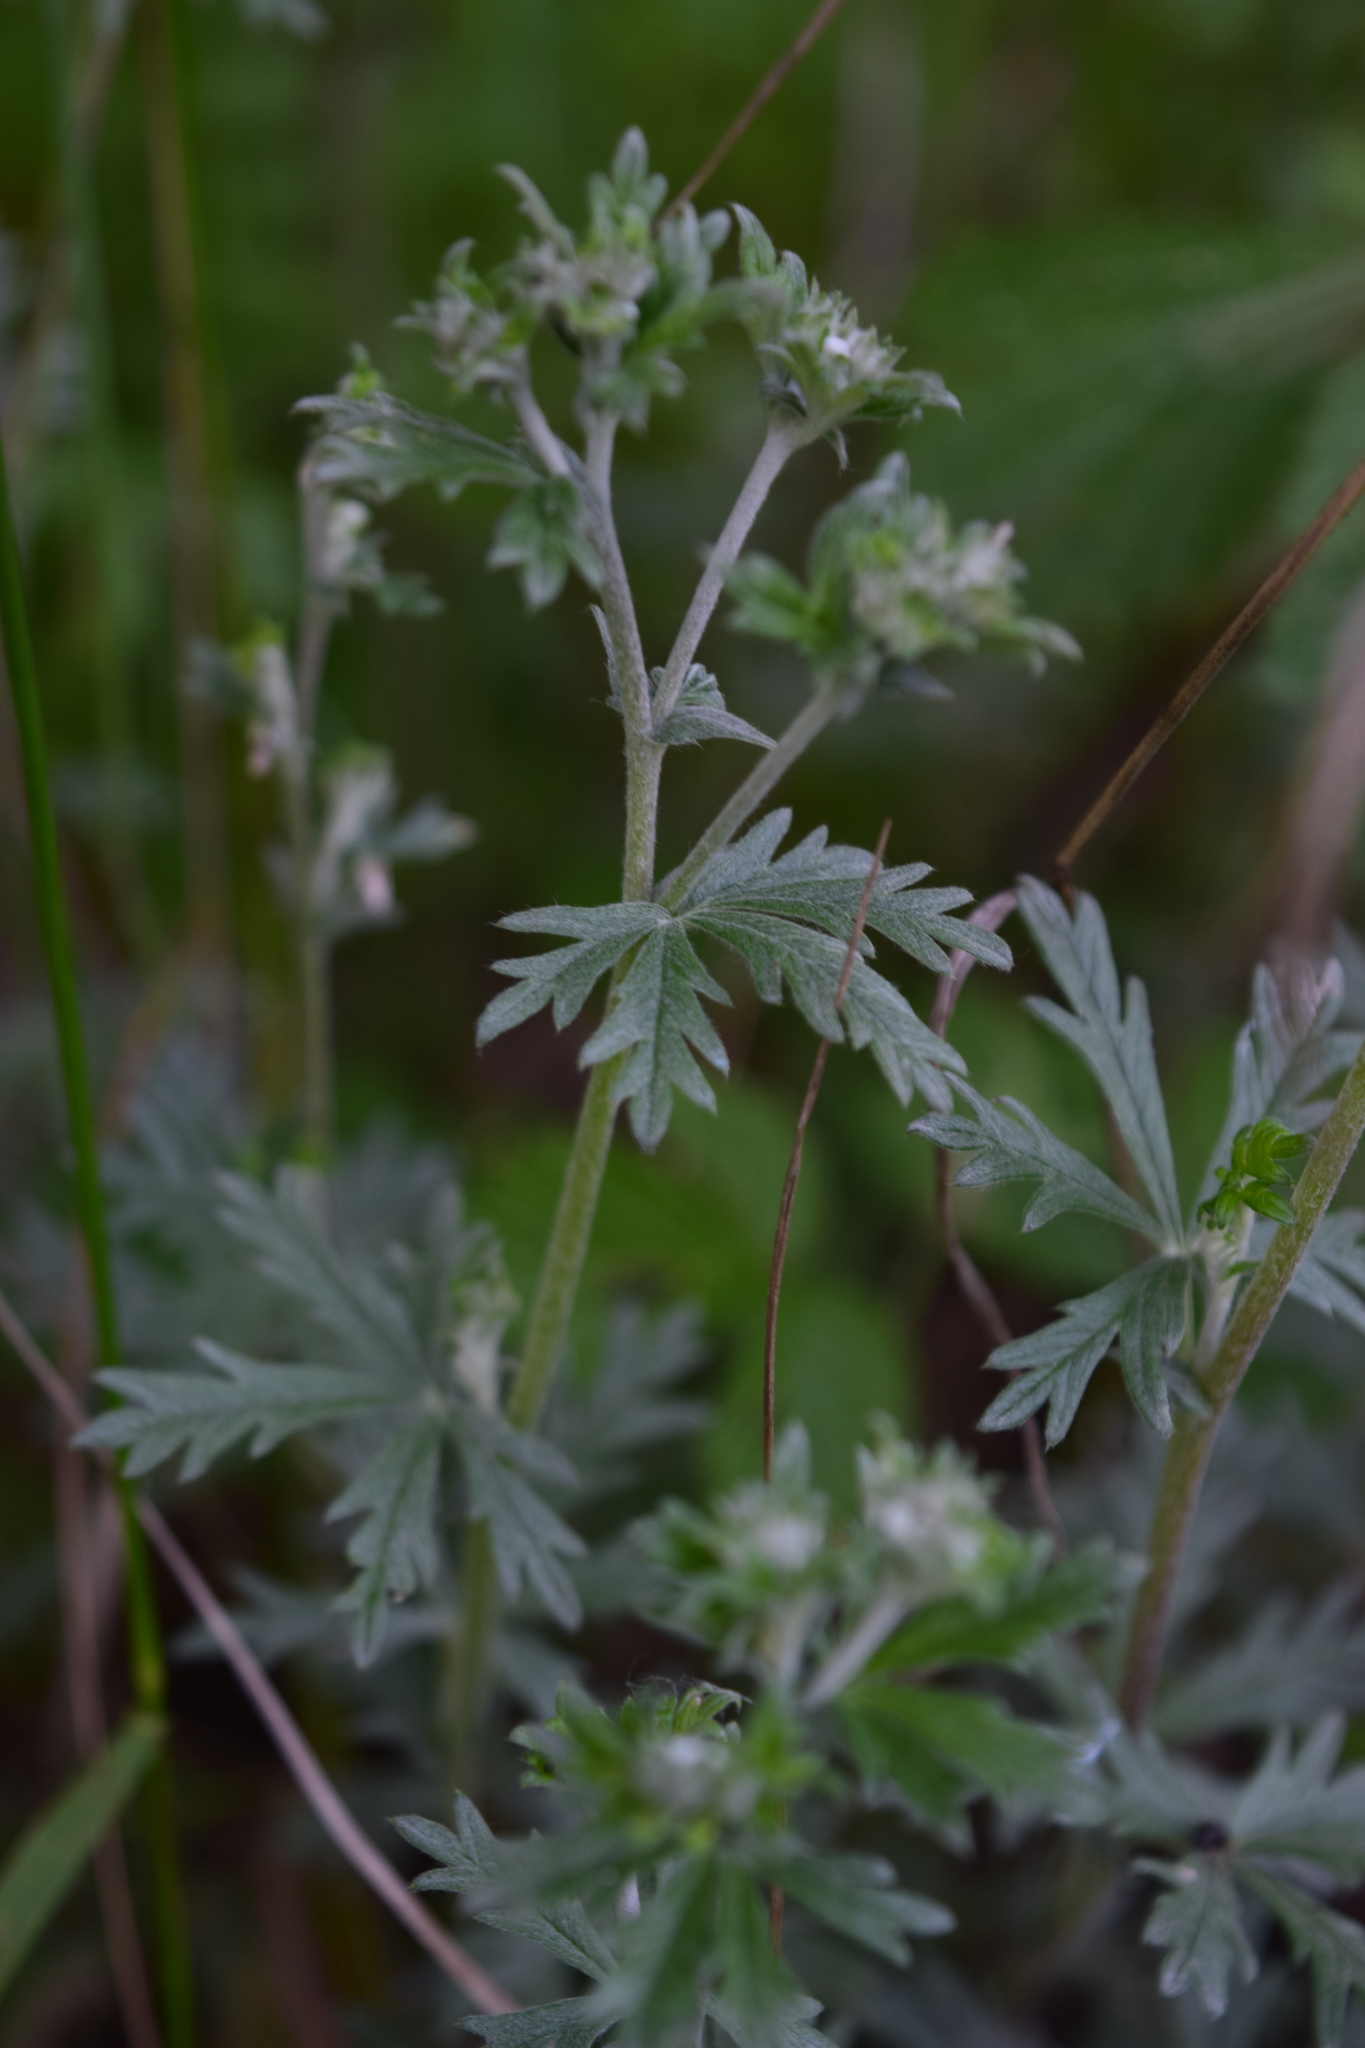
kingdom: Plantae
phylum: Tracheophyta
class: Magnoliopsida
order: Rosales
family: Rosaceae
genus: Potentilla
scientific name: Potentilla argentea
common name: Hoary cinquefoil
